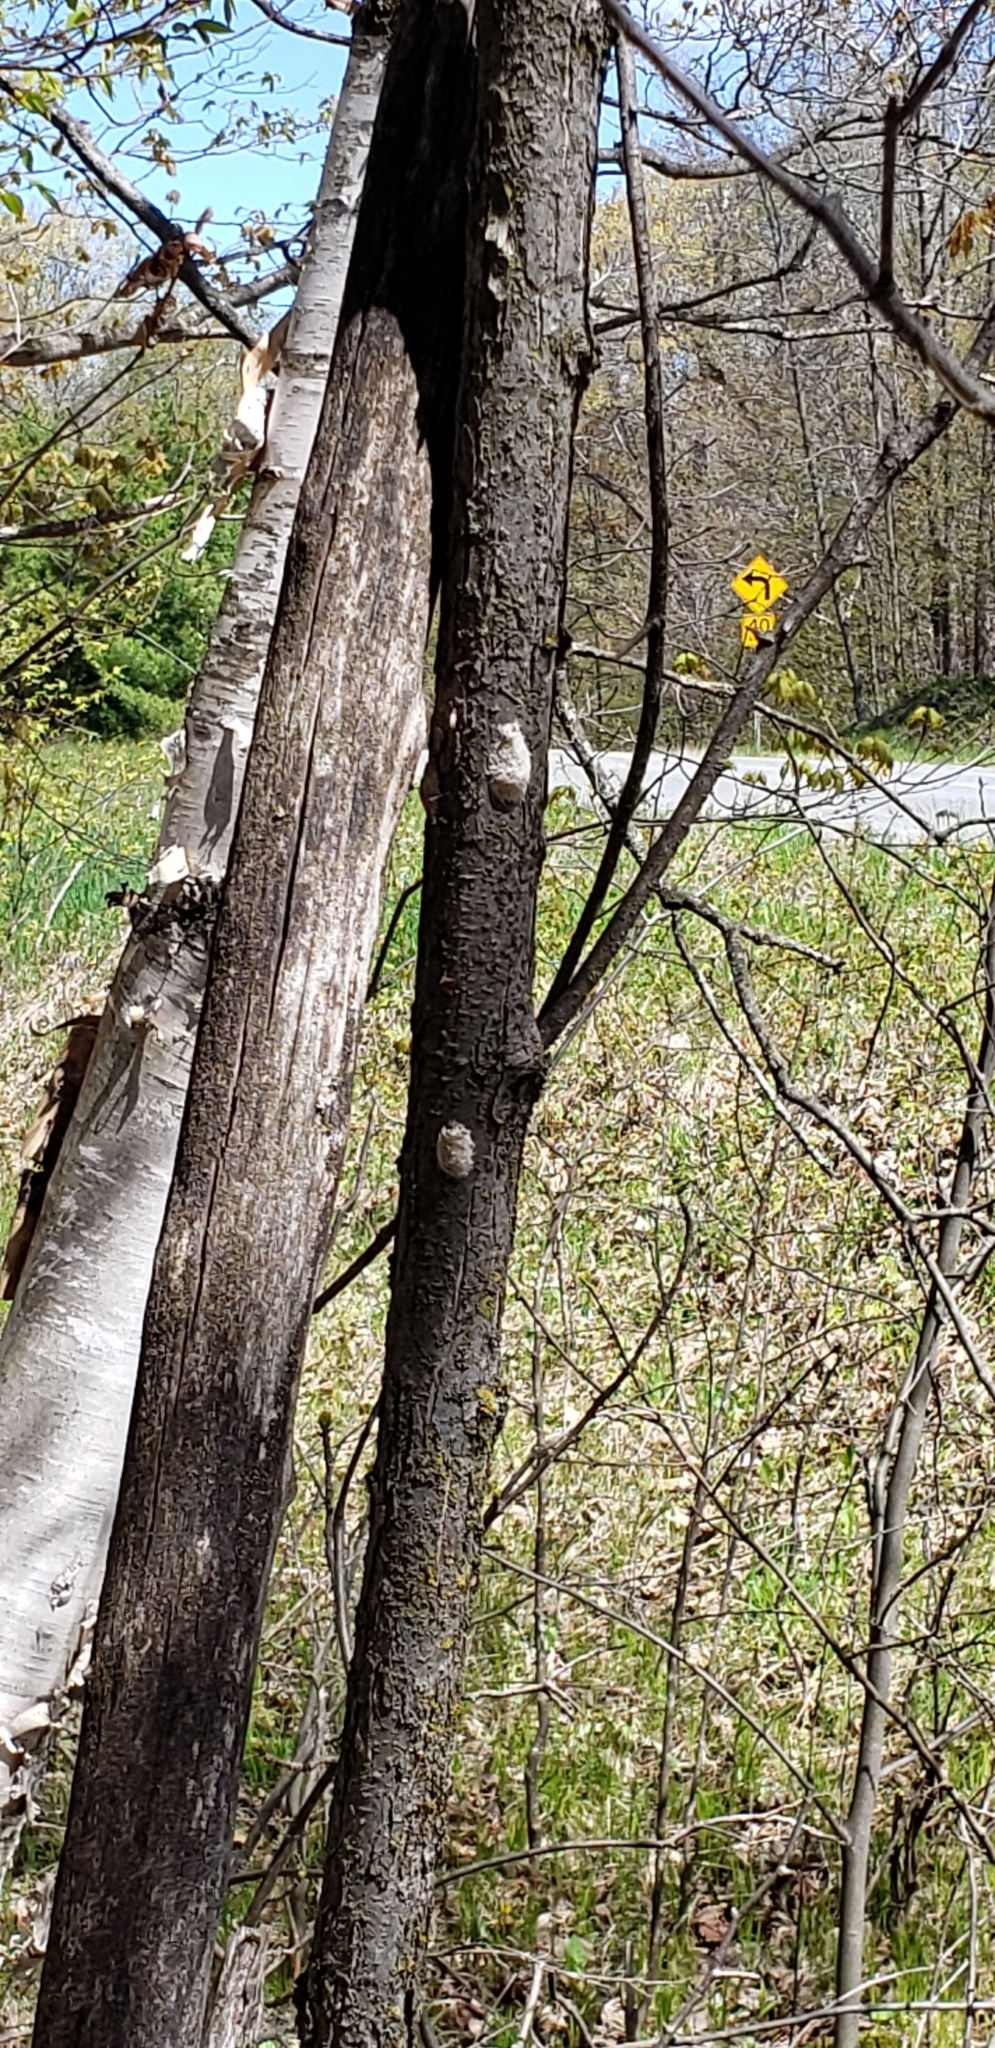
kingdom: Animalia
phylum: Arthropoda
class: Insecta
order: Lepidoptera
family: Erebidae
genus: Lymantria
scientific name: Lymantria dispar
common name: Gypsy moth
